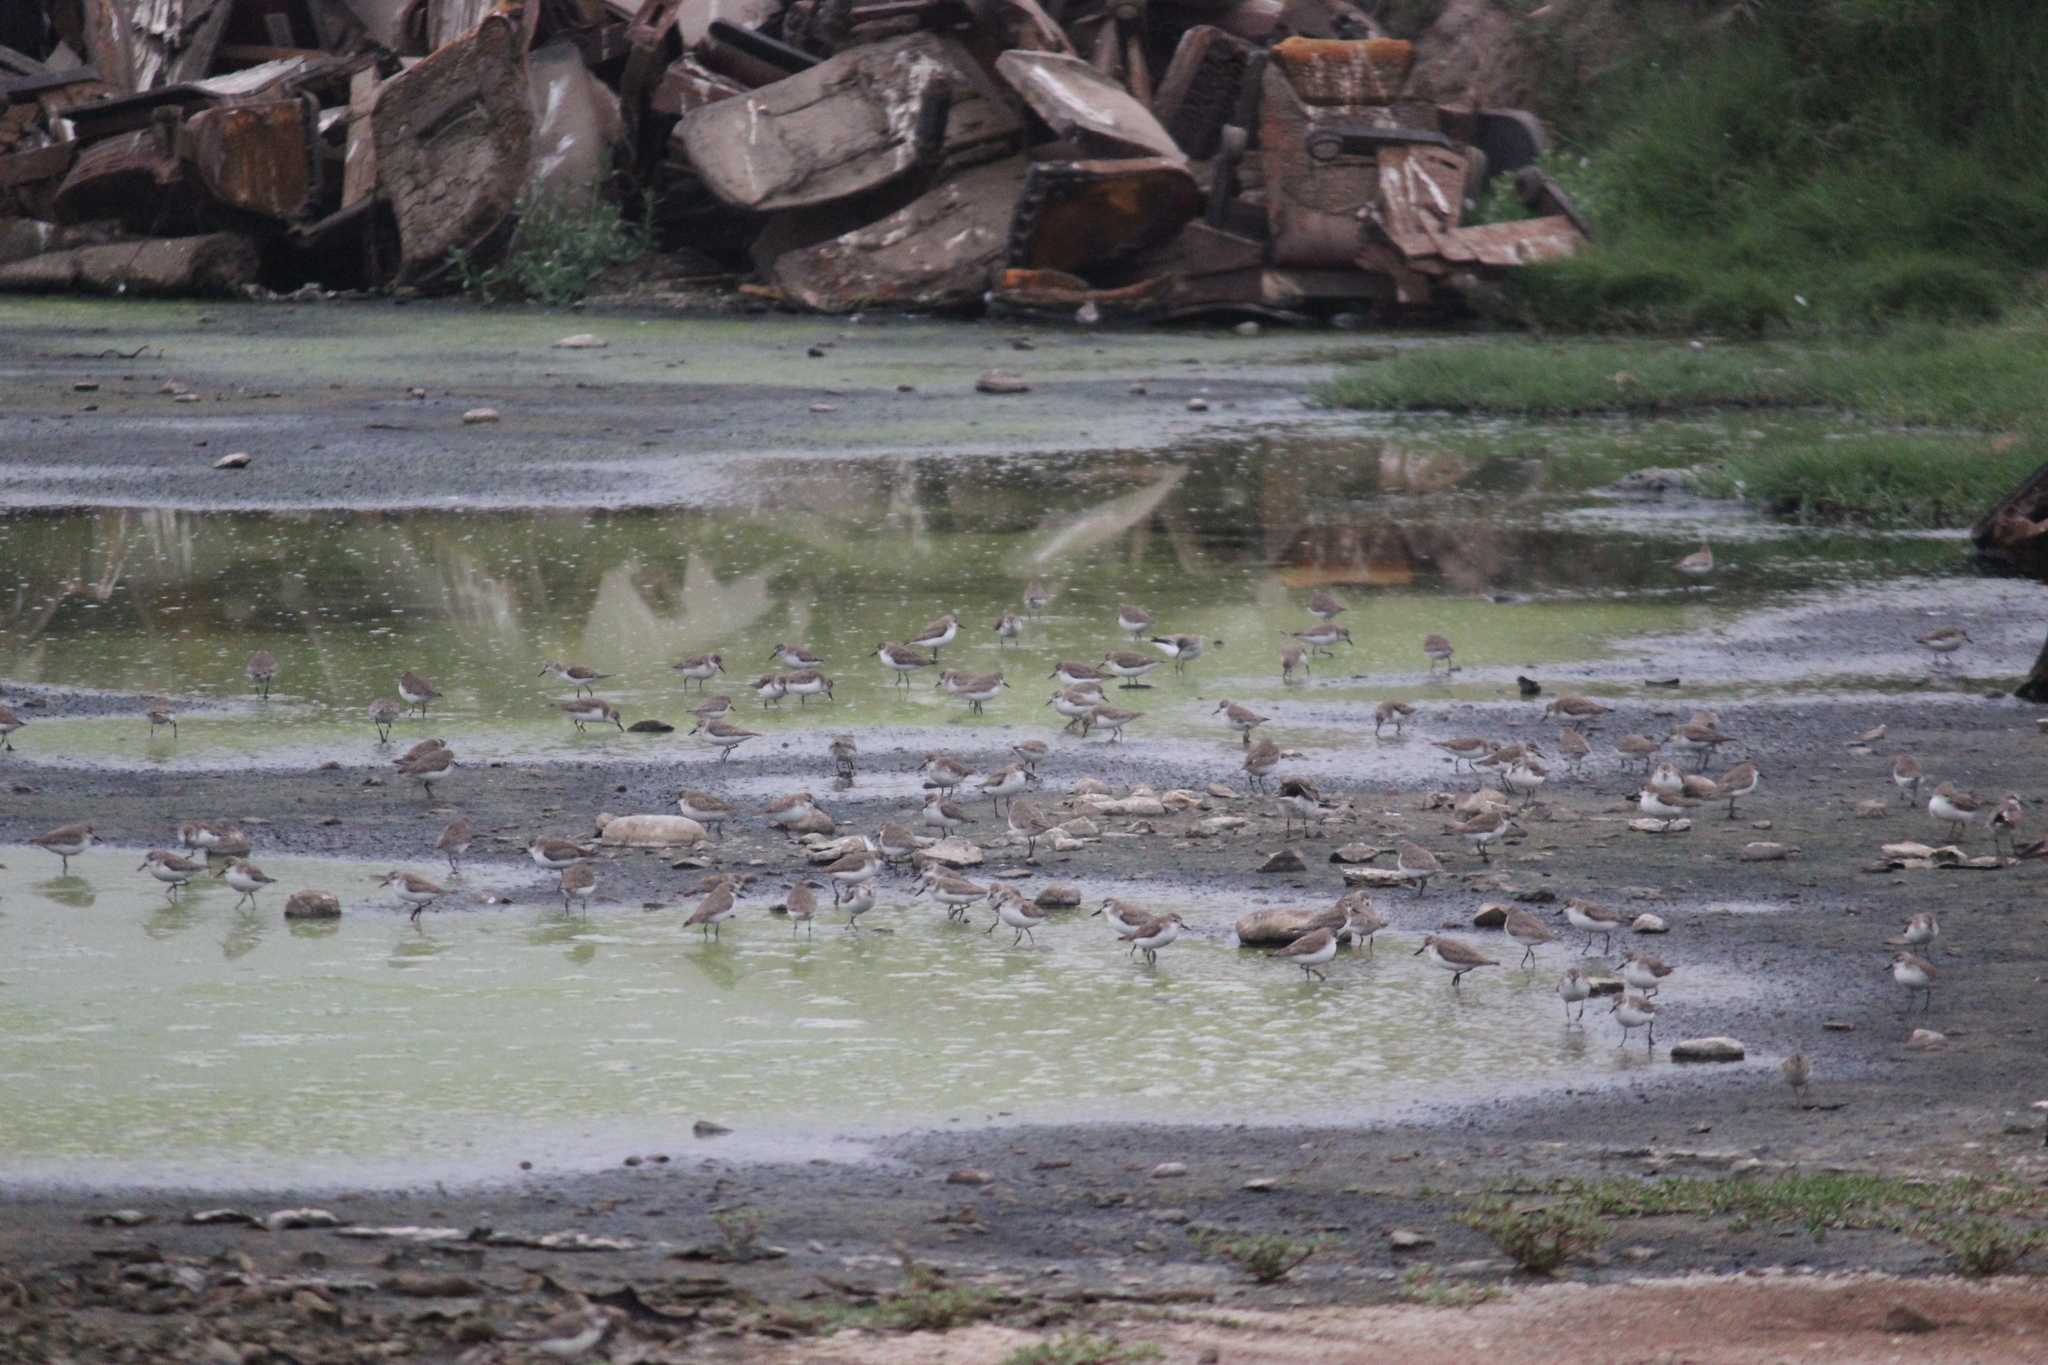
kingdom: Animalia
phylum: Chordata
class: Aves
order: Charadriiformes
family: Scolopacidae
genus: Calidris
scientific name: Calidris pusilla
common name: Semipalmated sandpiper
